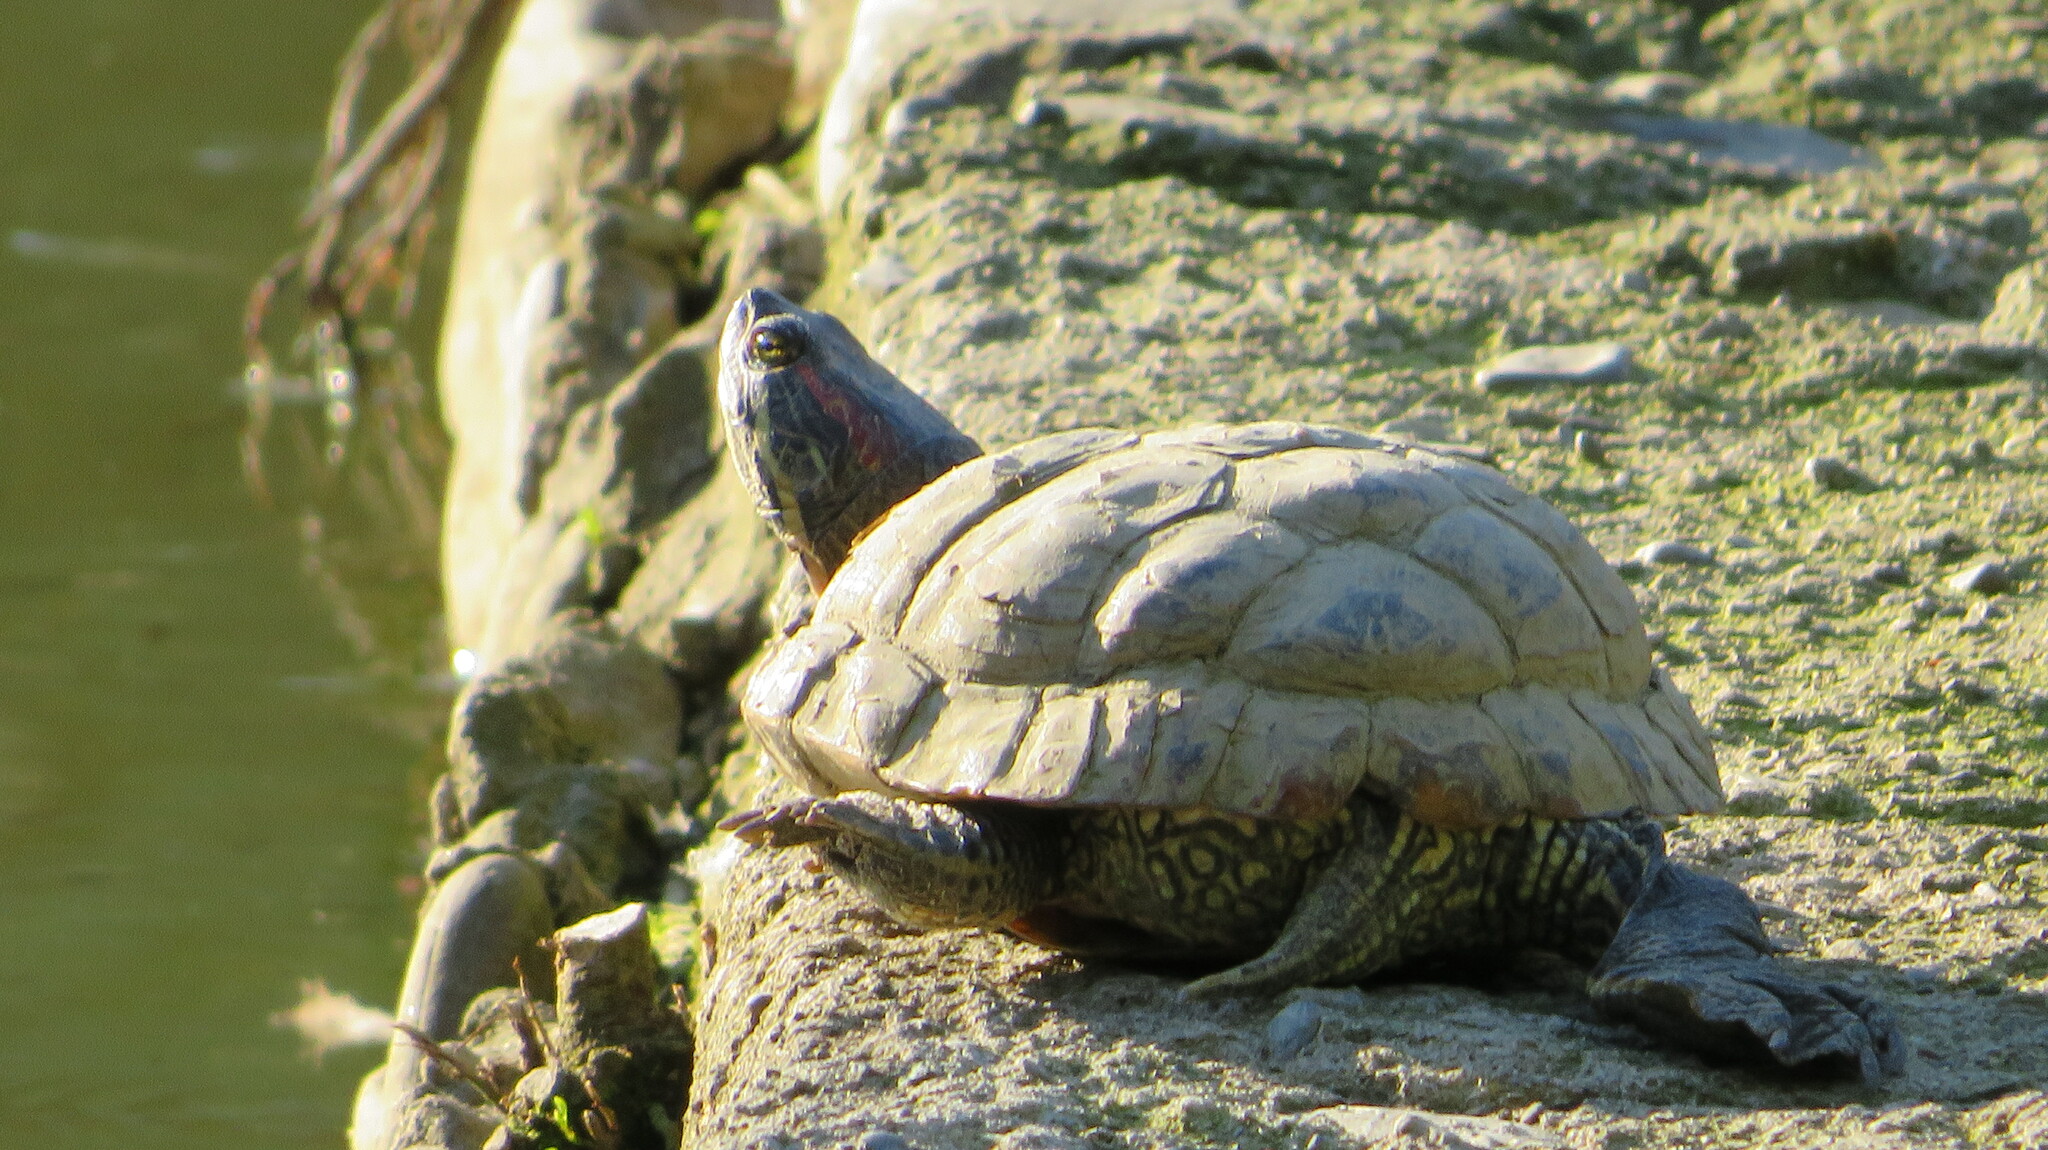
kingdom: Animalia
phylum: Chordata
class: Testudines
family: Emydidae
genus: Trachemys
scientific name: Trachemys scripta
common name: Slider
